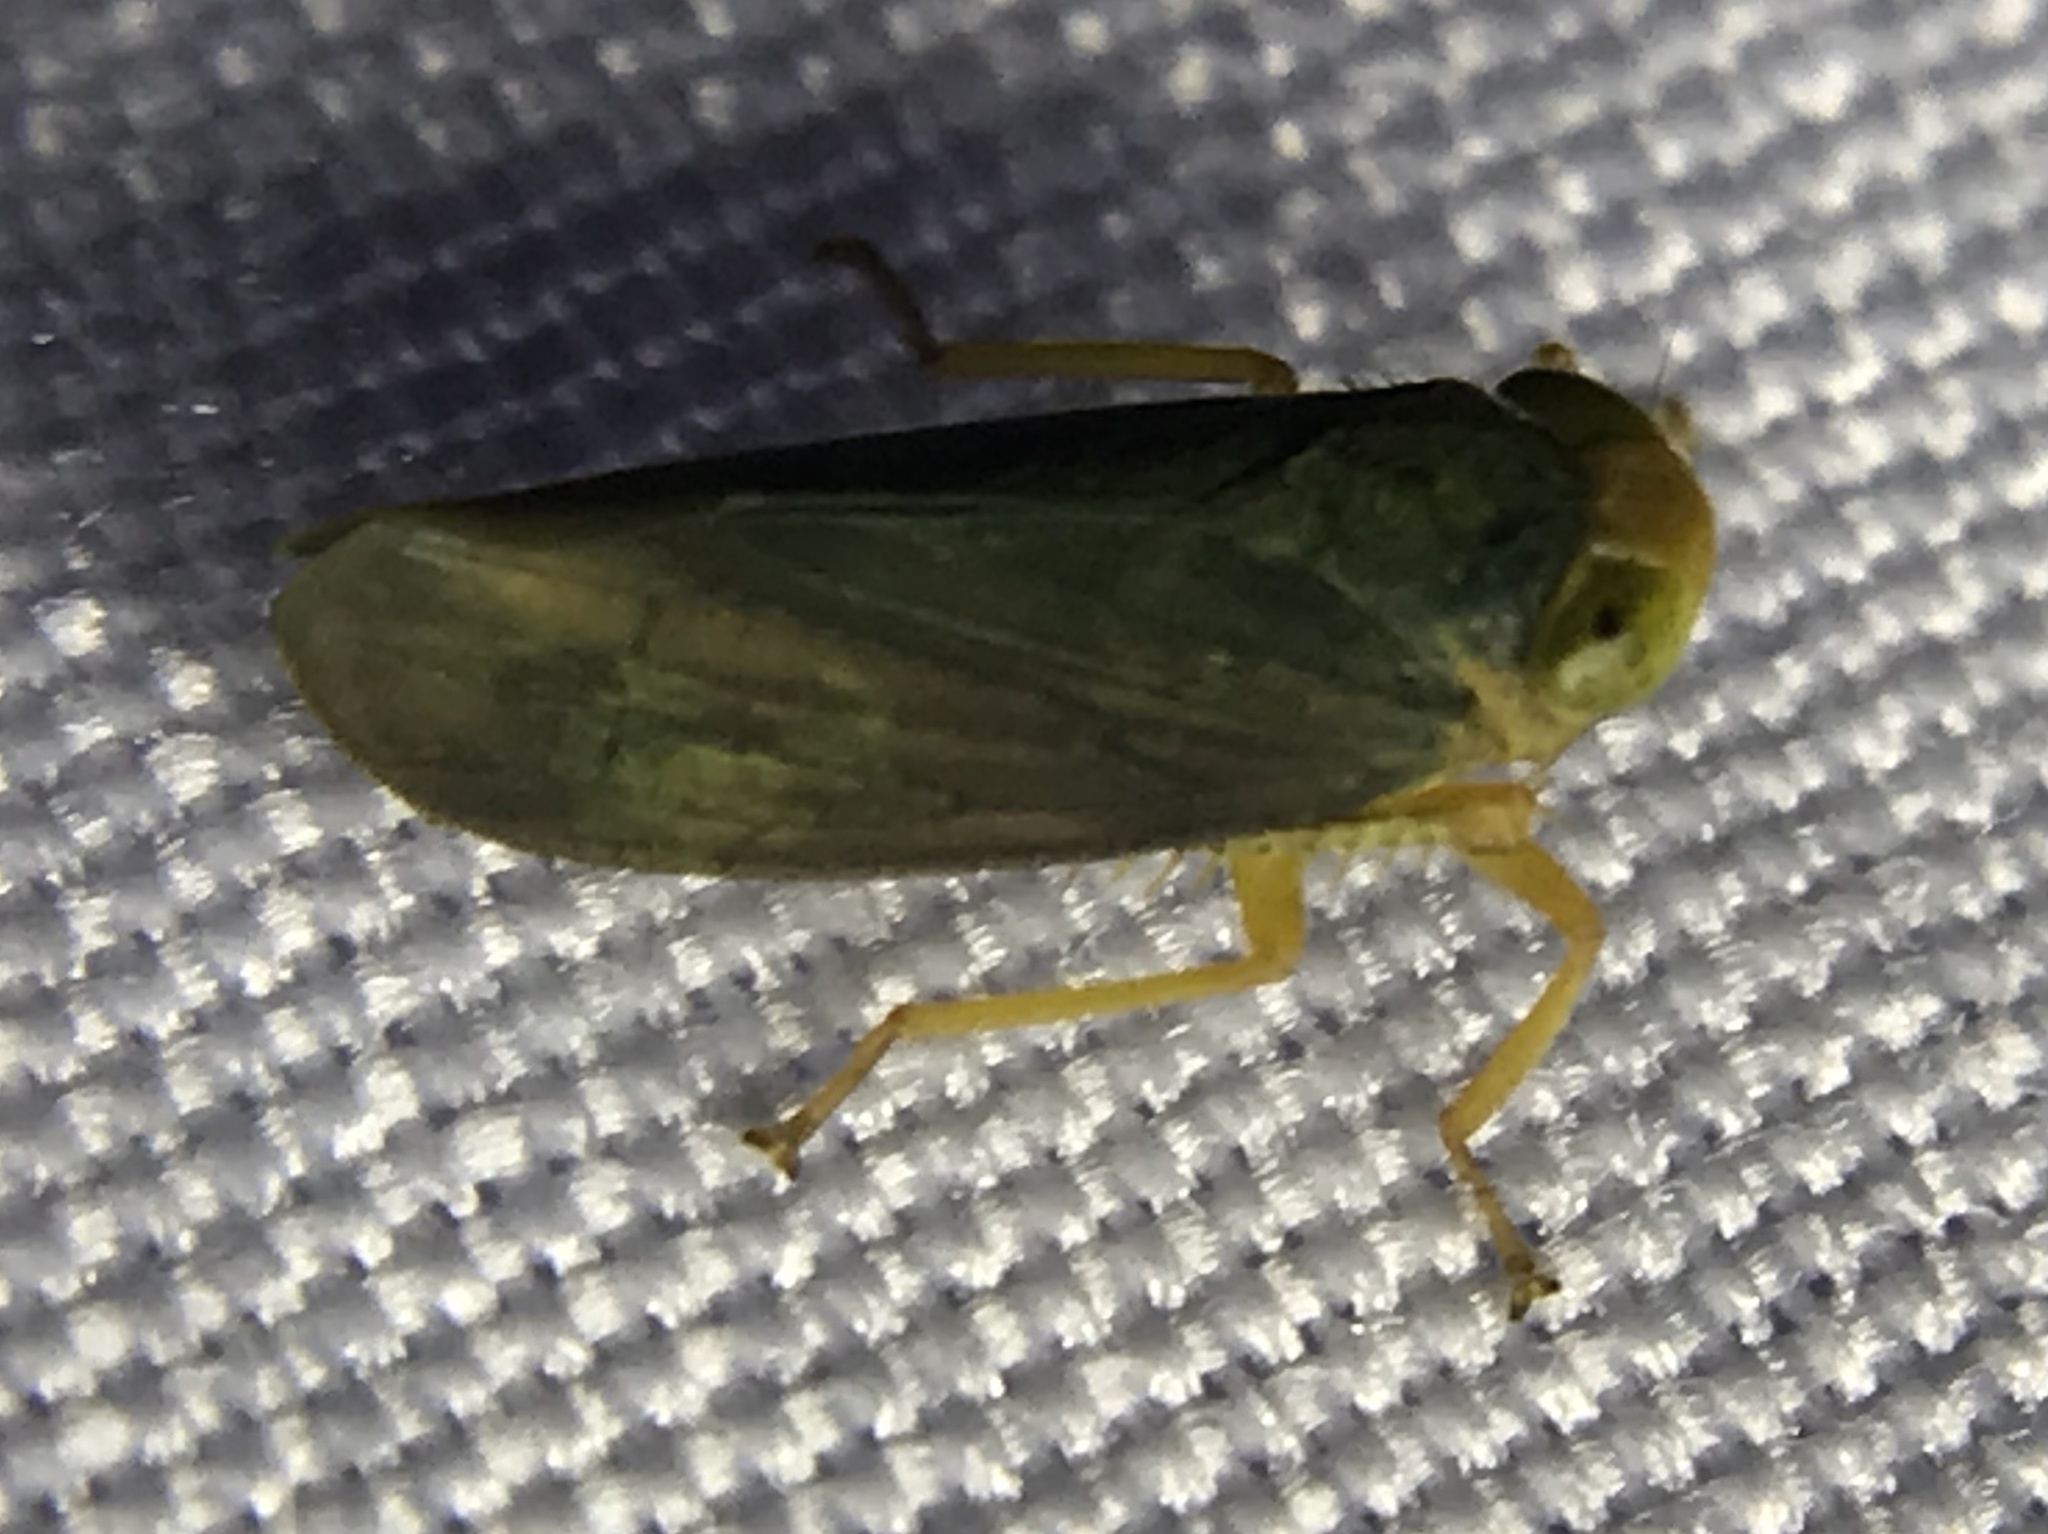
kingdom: Animalia
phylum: Arthropoda
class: Insecta
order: Hemiptera
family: Cicadellidae
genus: Jikradia
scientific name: Jikradia olitoria
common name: Coppery leafhopper
